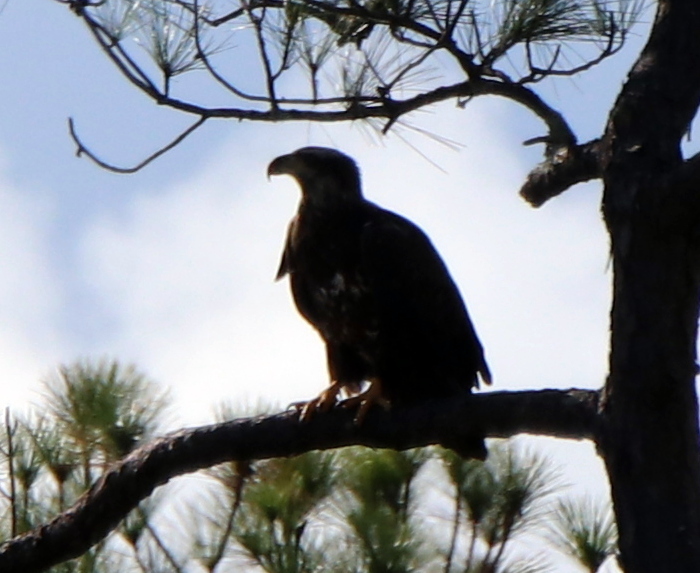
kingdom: Animalia
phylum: Chordata
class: Aves
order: Accipitriformes
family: Accipitridae
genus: Haliaeetus
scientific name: Haliaeetus leucocephalus
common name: Bald eagle
